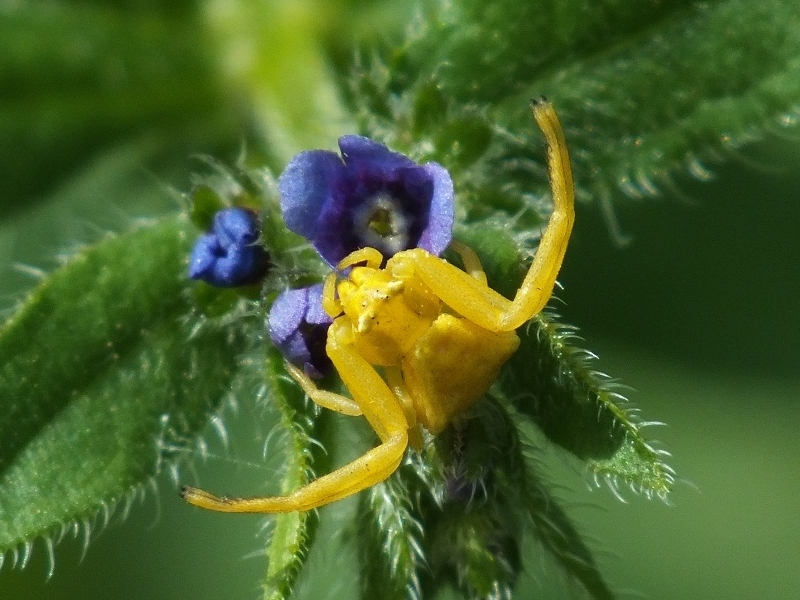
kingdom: Animalia
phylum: Arthropoda
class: Arachnida
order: Araneae
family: Thomisidae
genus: Thomisus
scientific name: Thomisus onustus
